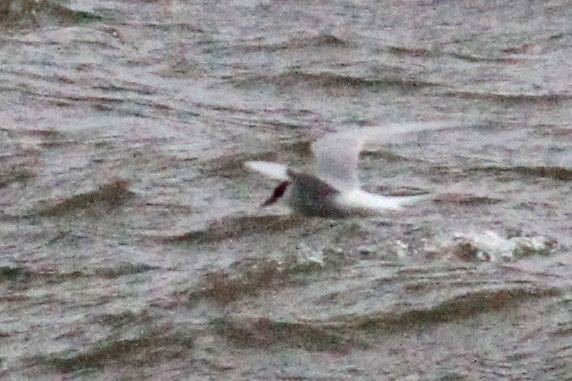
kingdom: Animalia
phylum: Chordata
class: Aves
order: Charadriiformes
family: Laridae
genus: Sterna
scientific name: Sterna paradisaea
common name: Arctic tern
